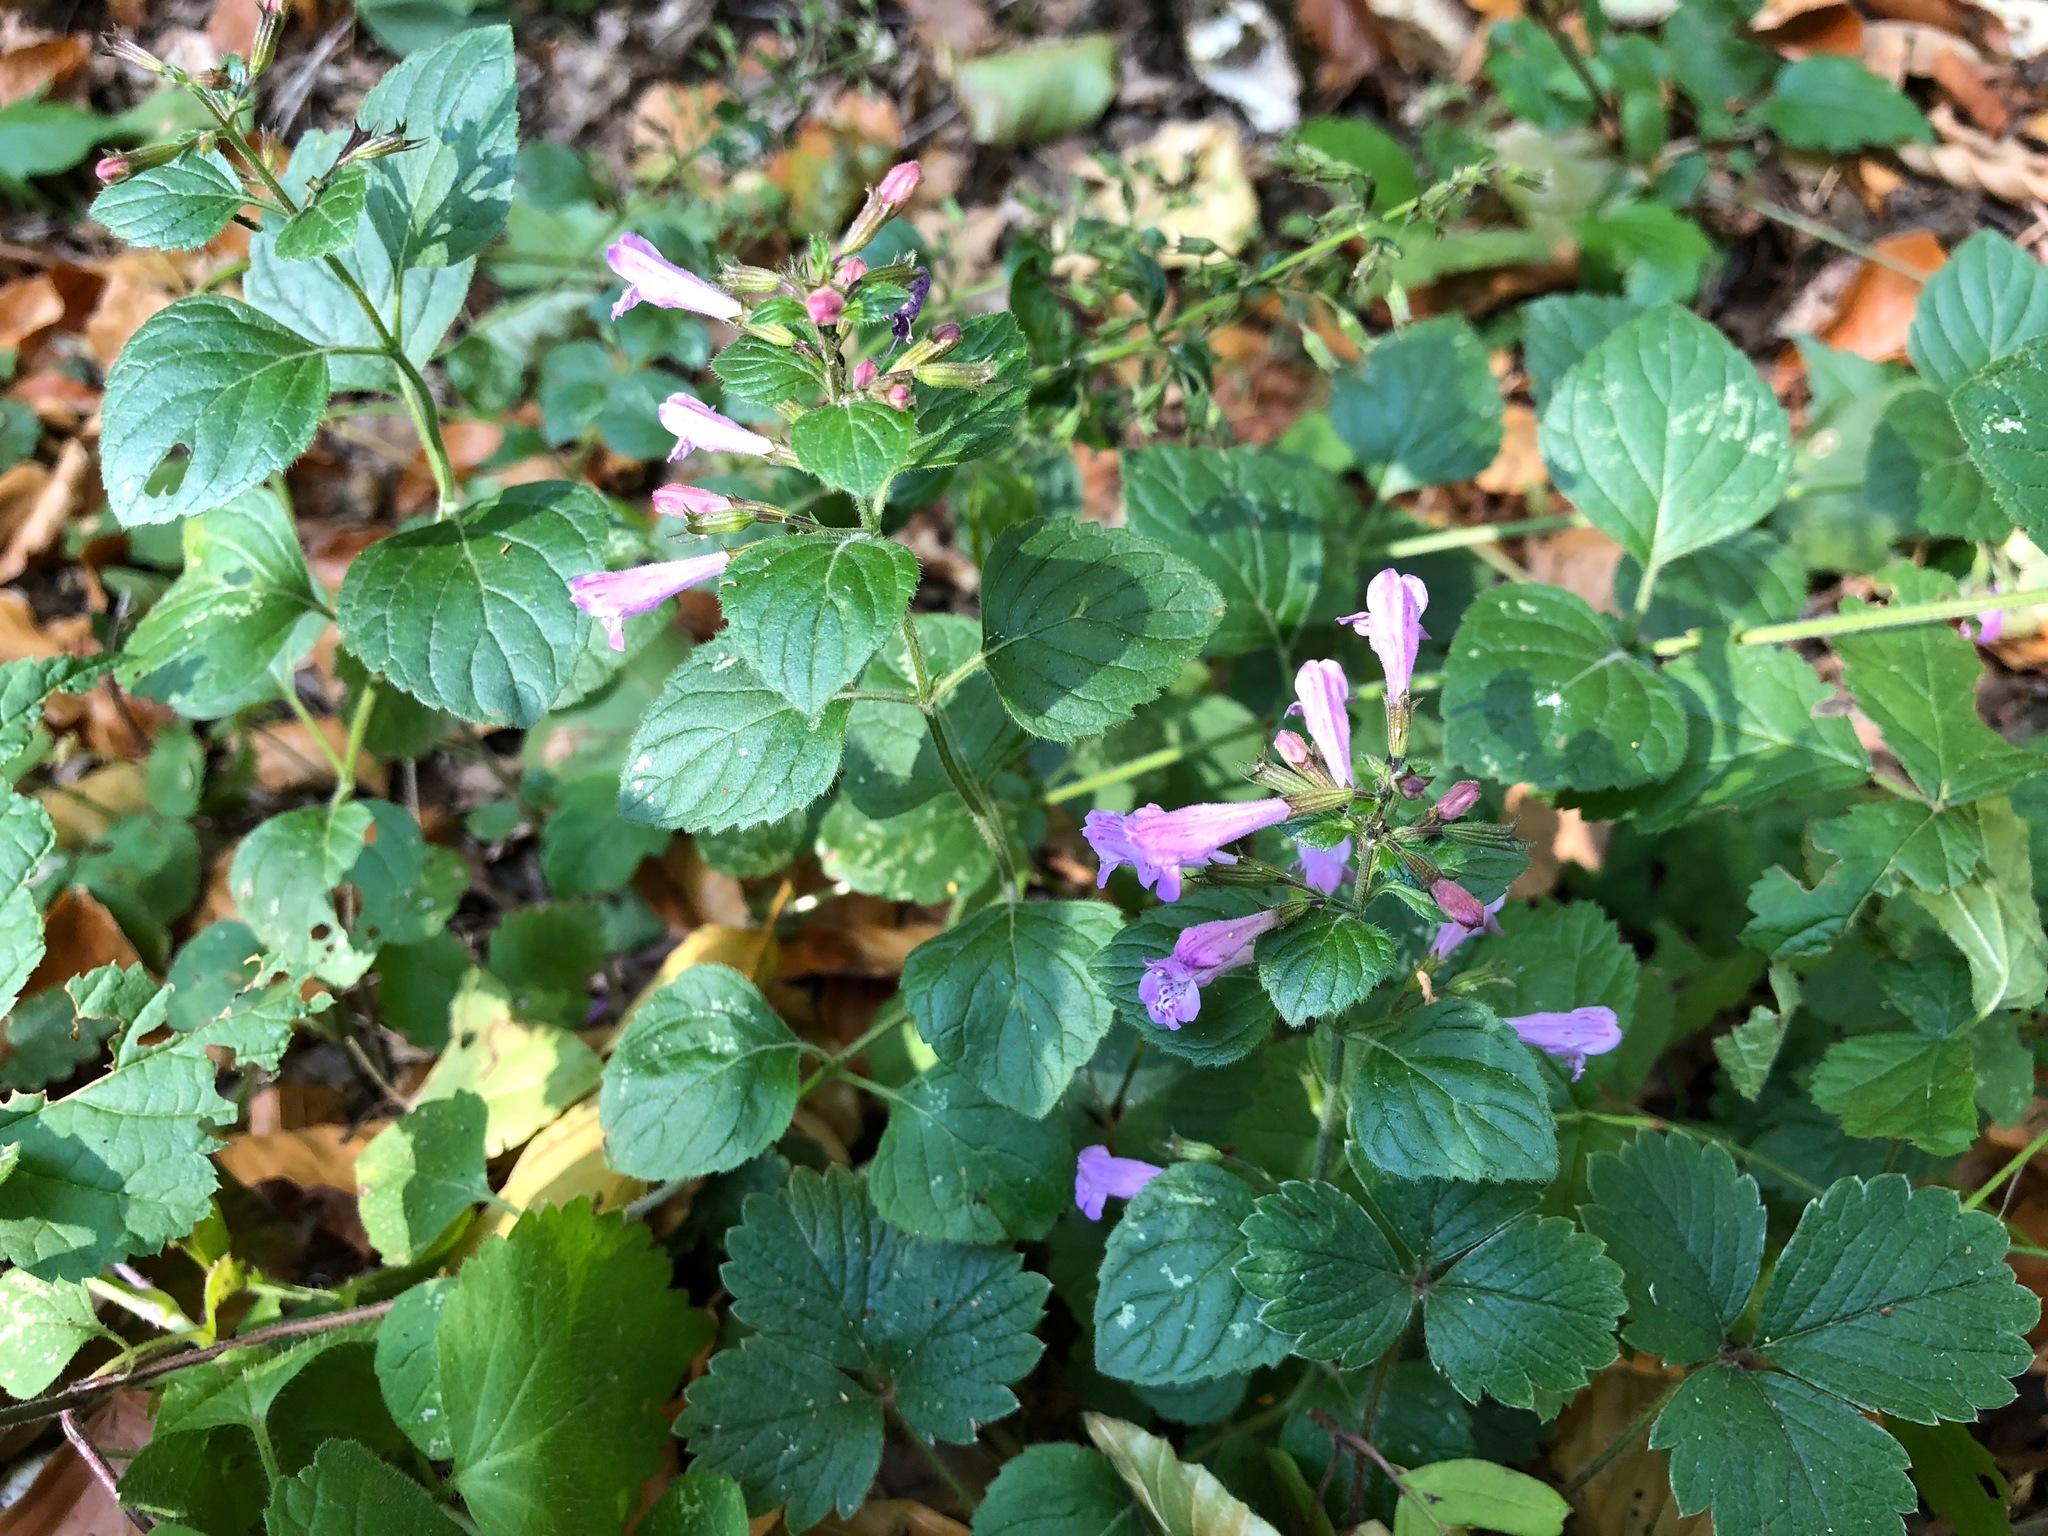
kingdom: Plantae
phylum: Tracheophyta
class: Magnoliopsida
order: Lamiales
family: Lamiaceae
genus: Clinopodium
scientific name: Clinopodium menthifolium
